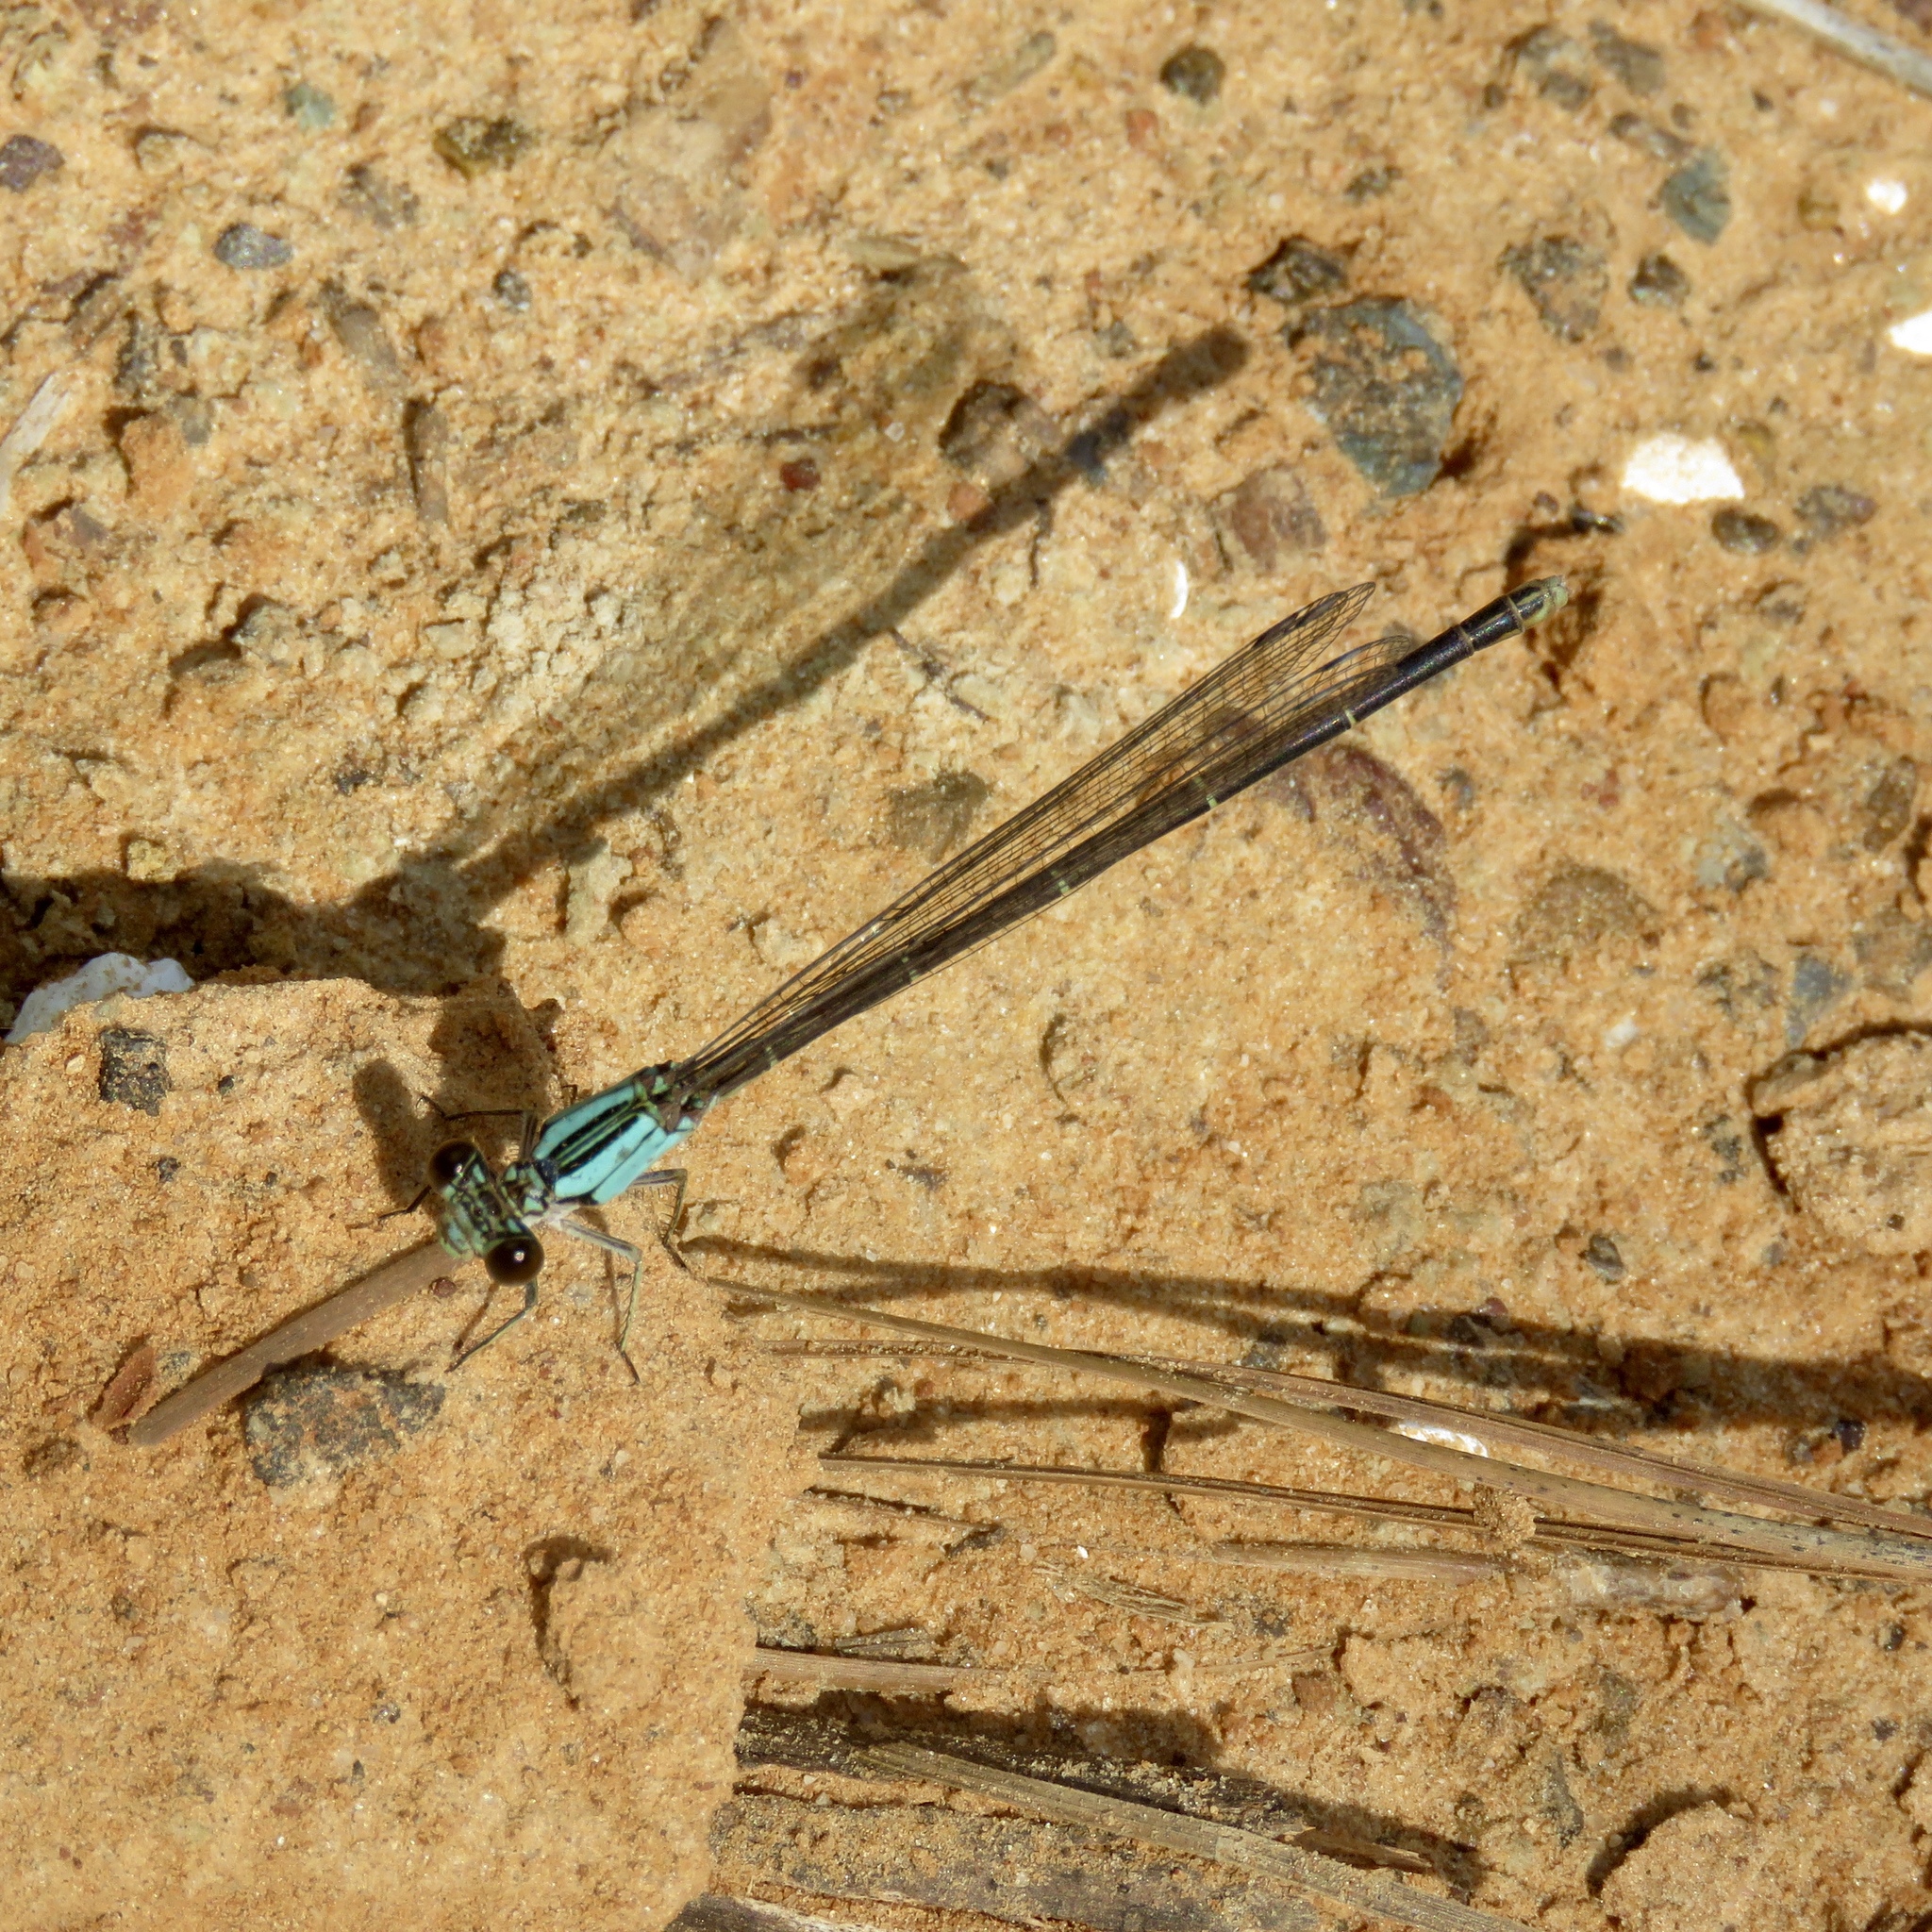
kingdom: Animalia
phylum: Arthropoda
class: Insecta
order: Odonata
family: Coenagrionidae
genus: Argia
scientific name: Argia
